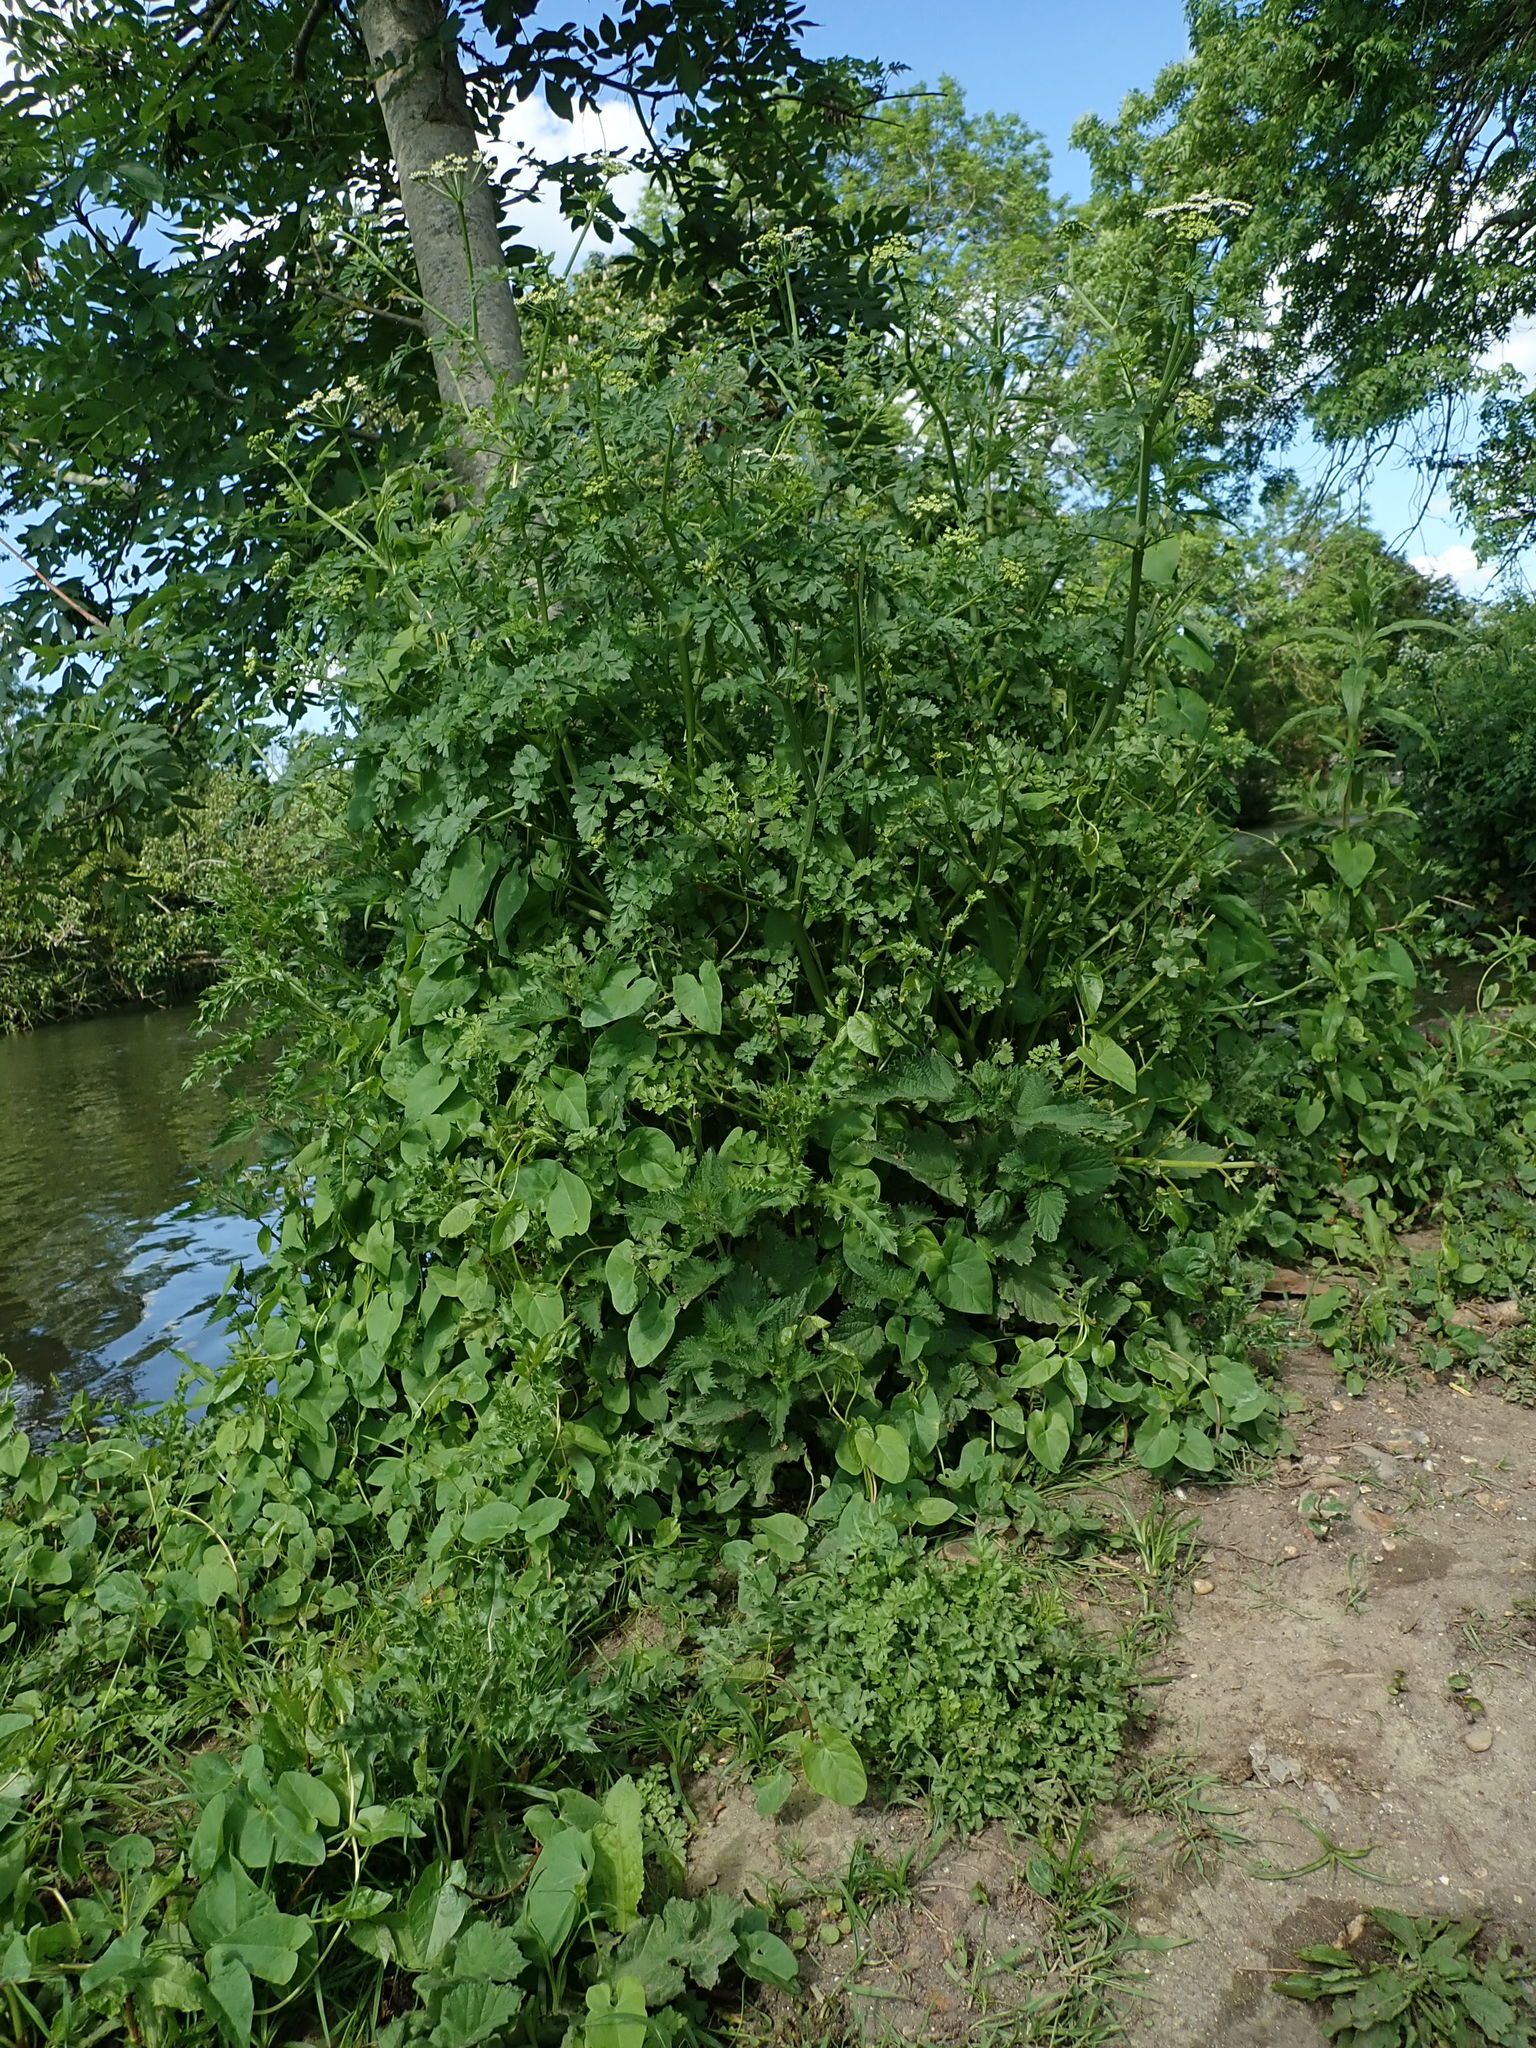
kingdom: Plantae
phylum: Tracheophyta
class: Magnoliopsida
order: Apiales
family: Apiaceae
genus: Oenanthe
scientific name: Oenanthe crocata
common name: Hemlock water-dropwort
